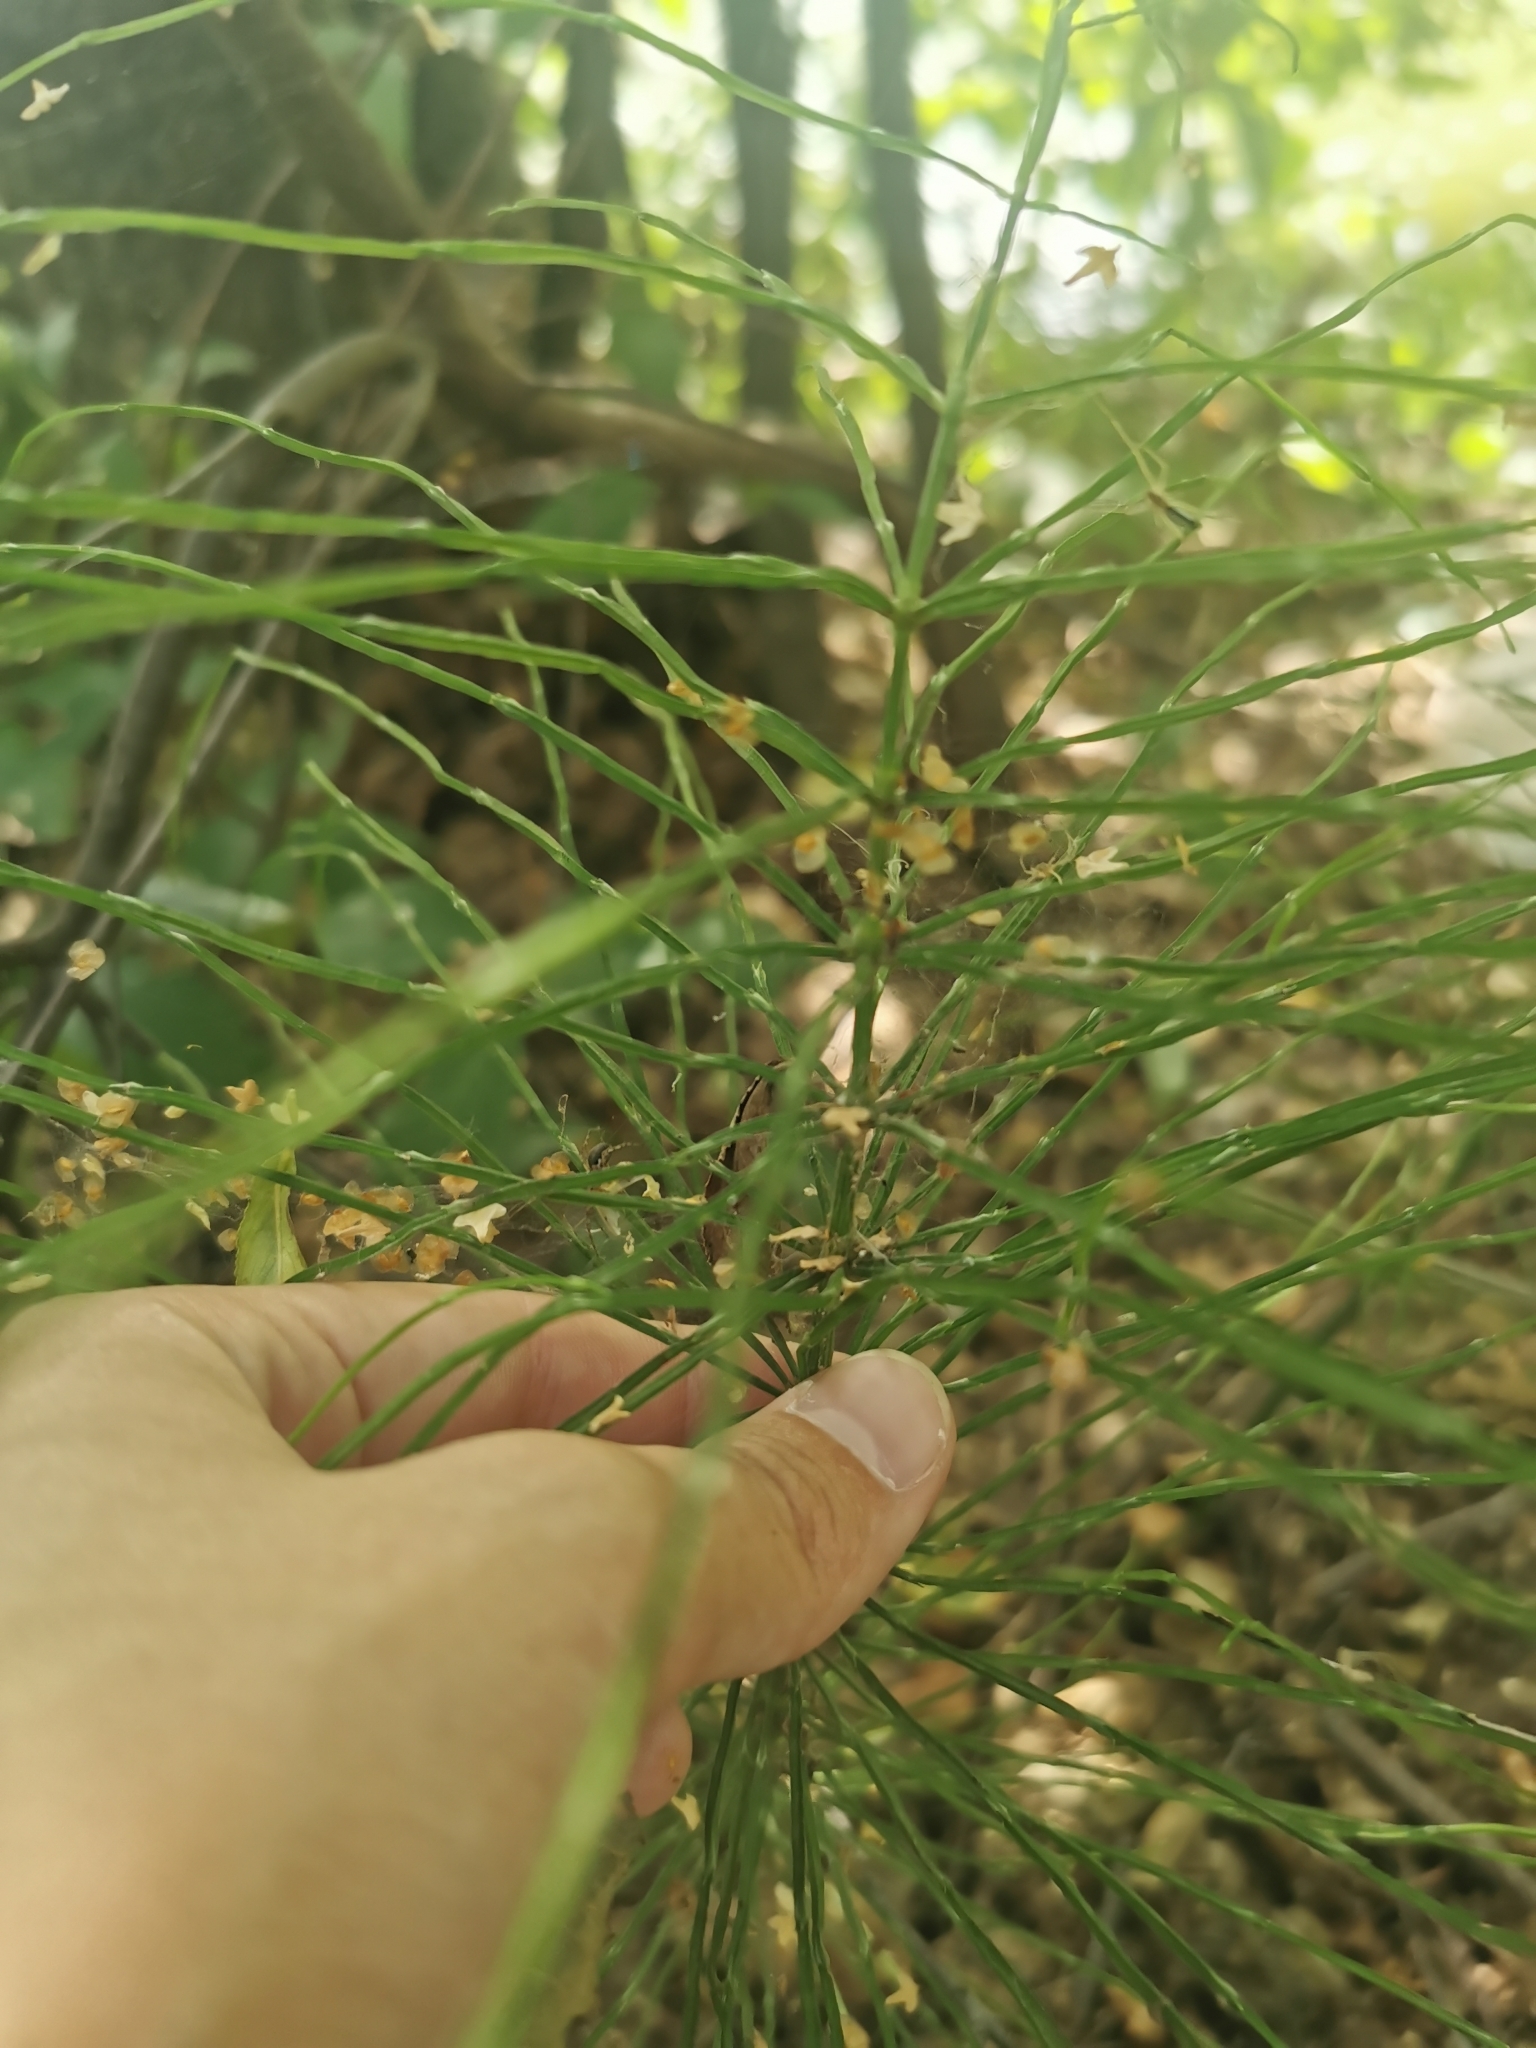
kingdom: Plantae
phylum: Tracheophyta
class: Polypodiopsida
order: Equisetales
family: Equisetaceae
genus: Equisetum
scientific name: Equisetum arvense
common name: Field horsetail
